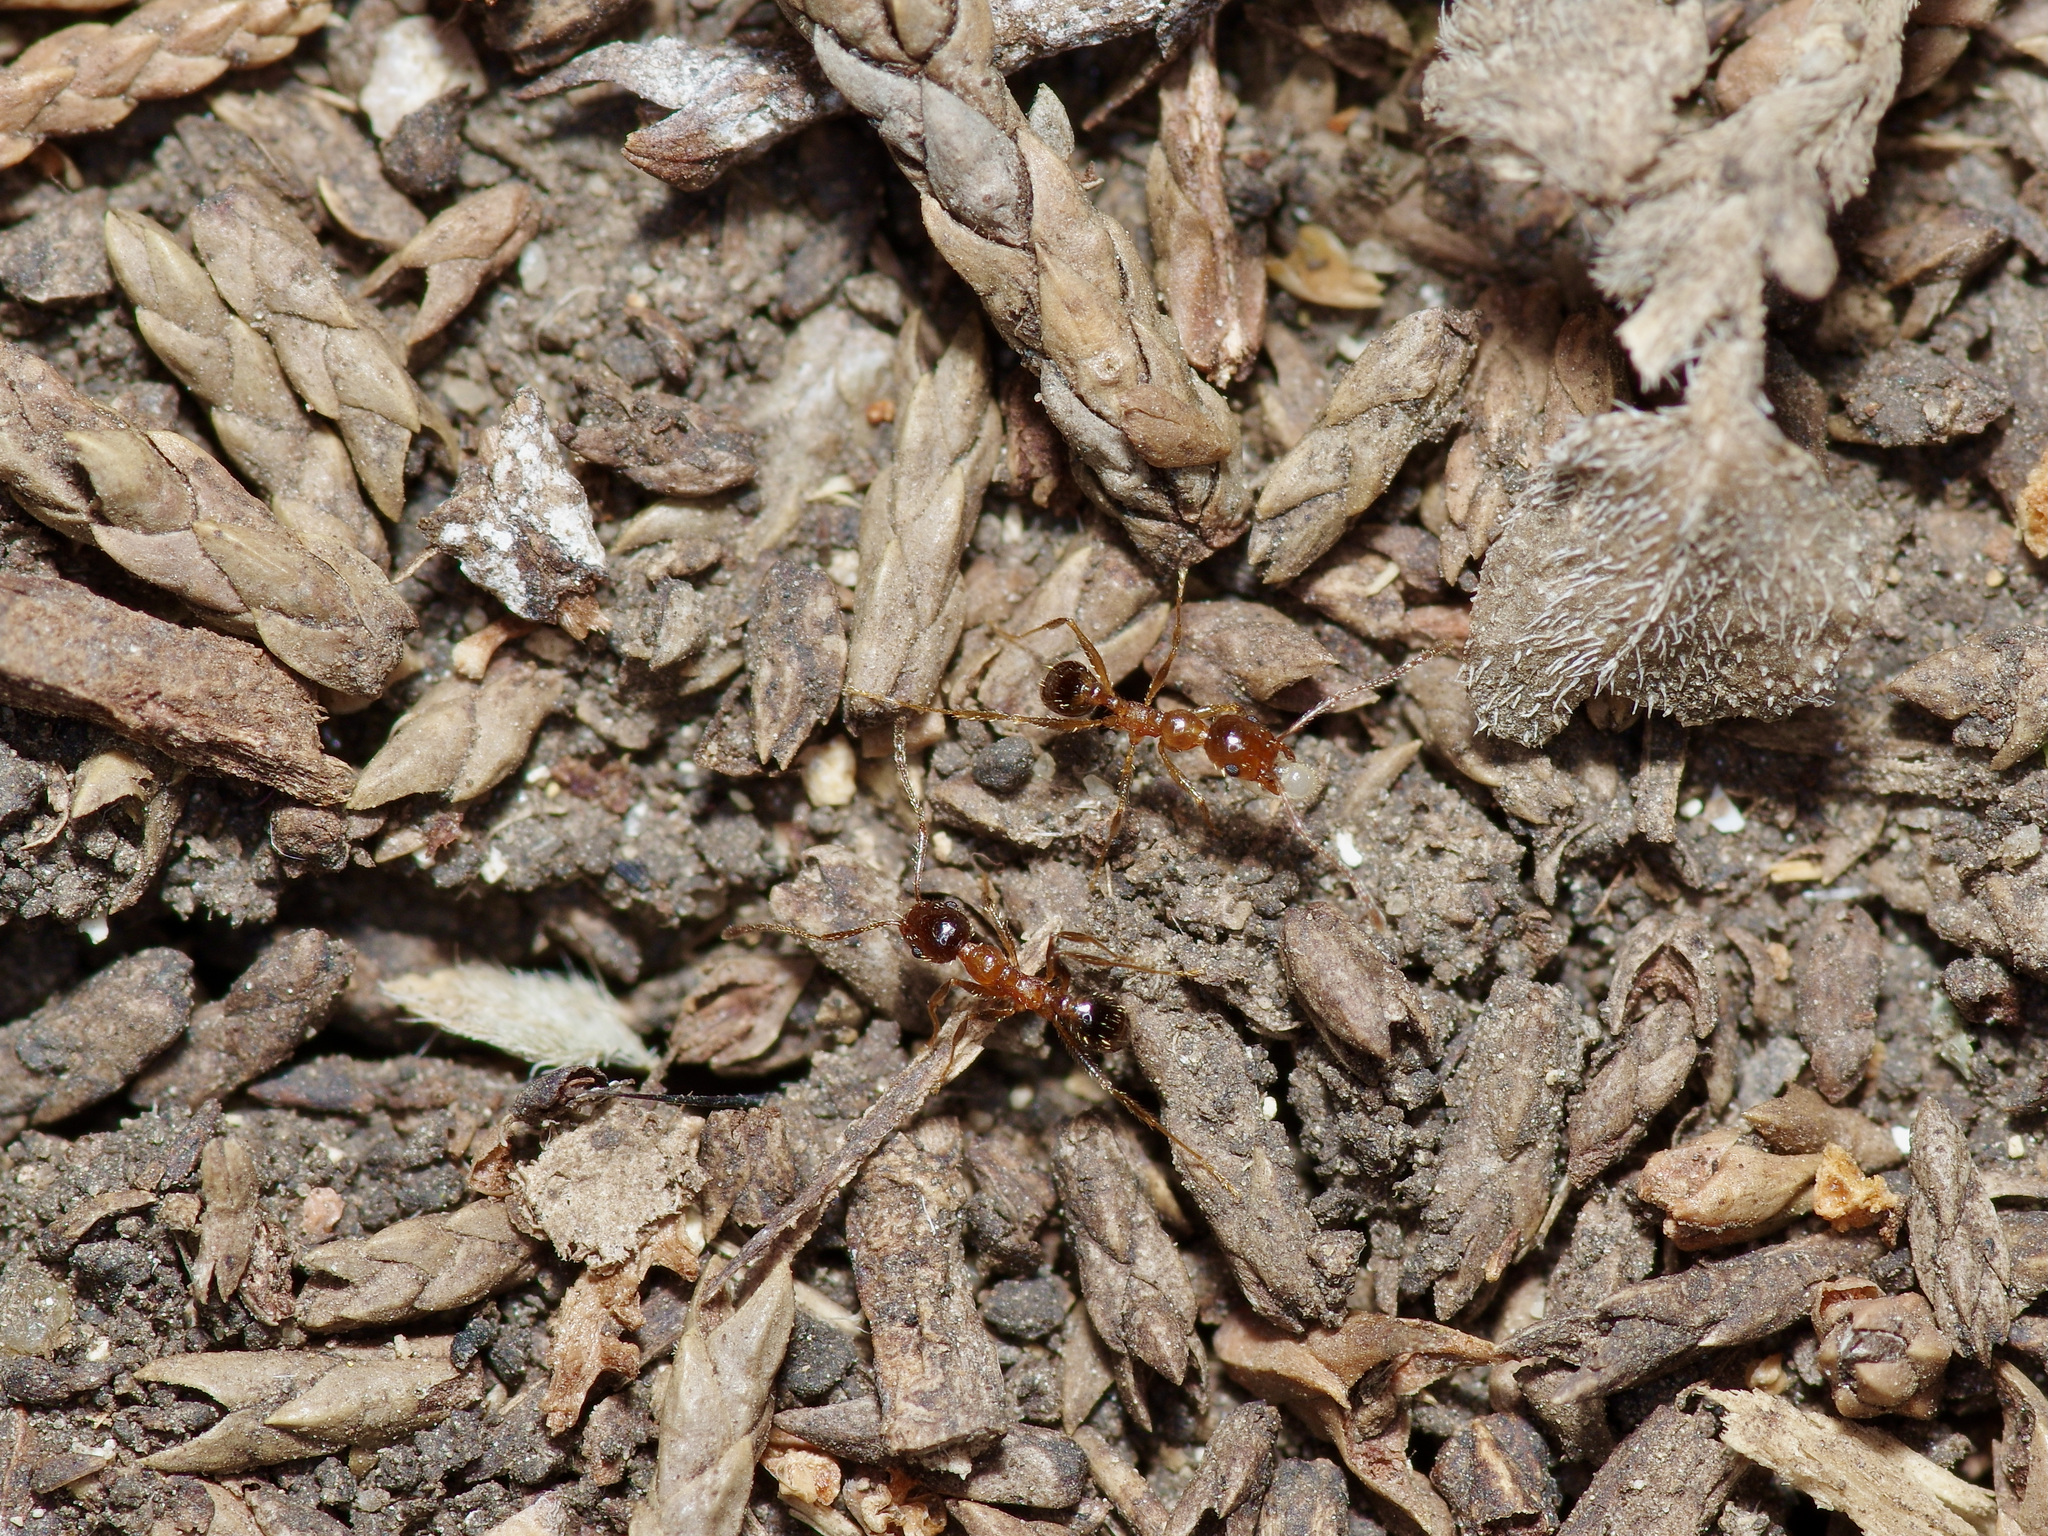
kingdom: Animalia
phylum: Arthropoda
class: Insecta
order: Hymenoptera
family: Formicidae
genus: Pheidole
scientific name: Pheidole dentata
